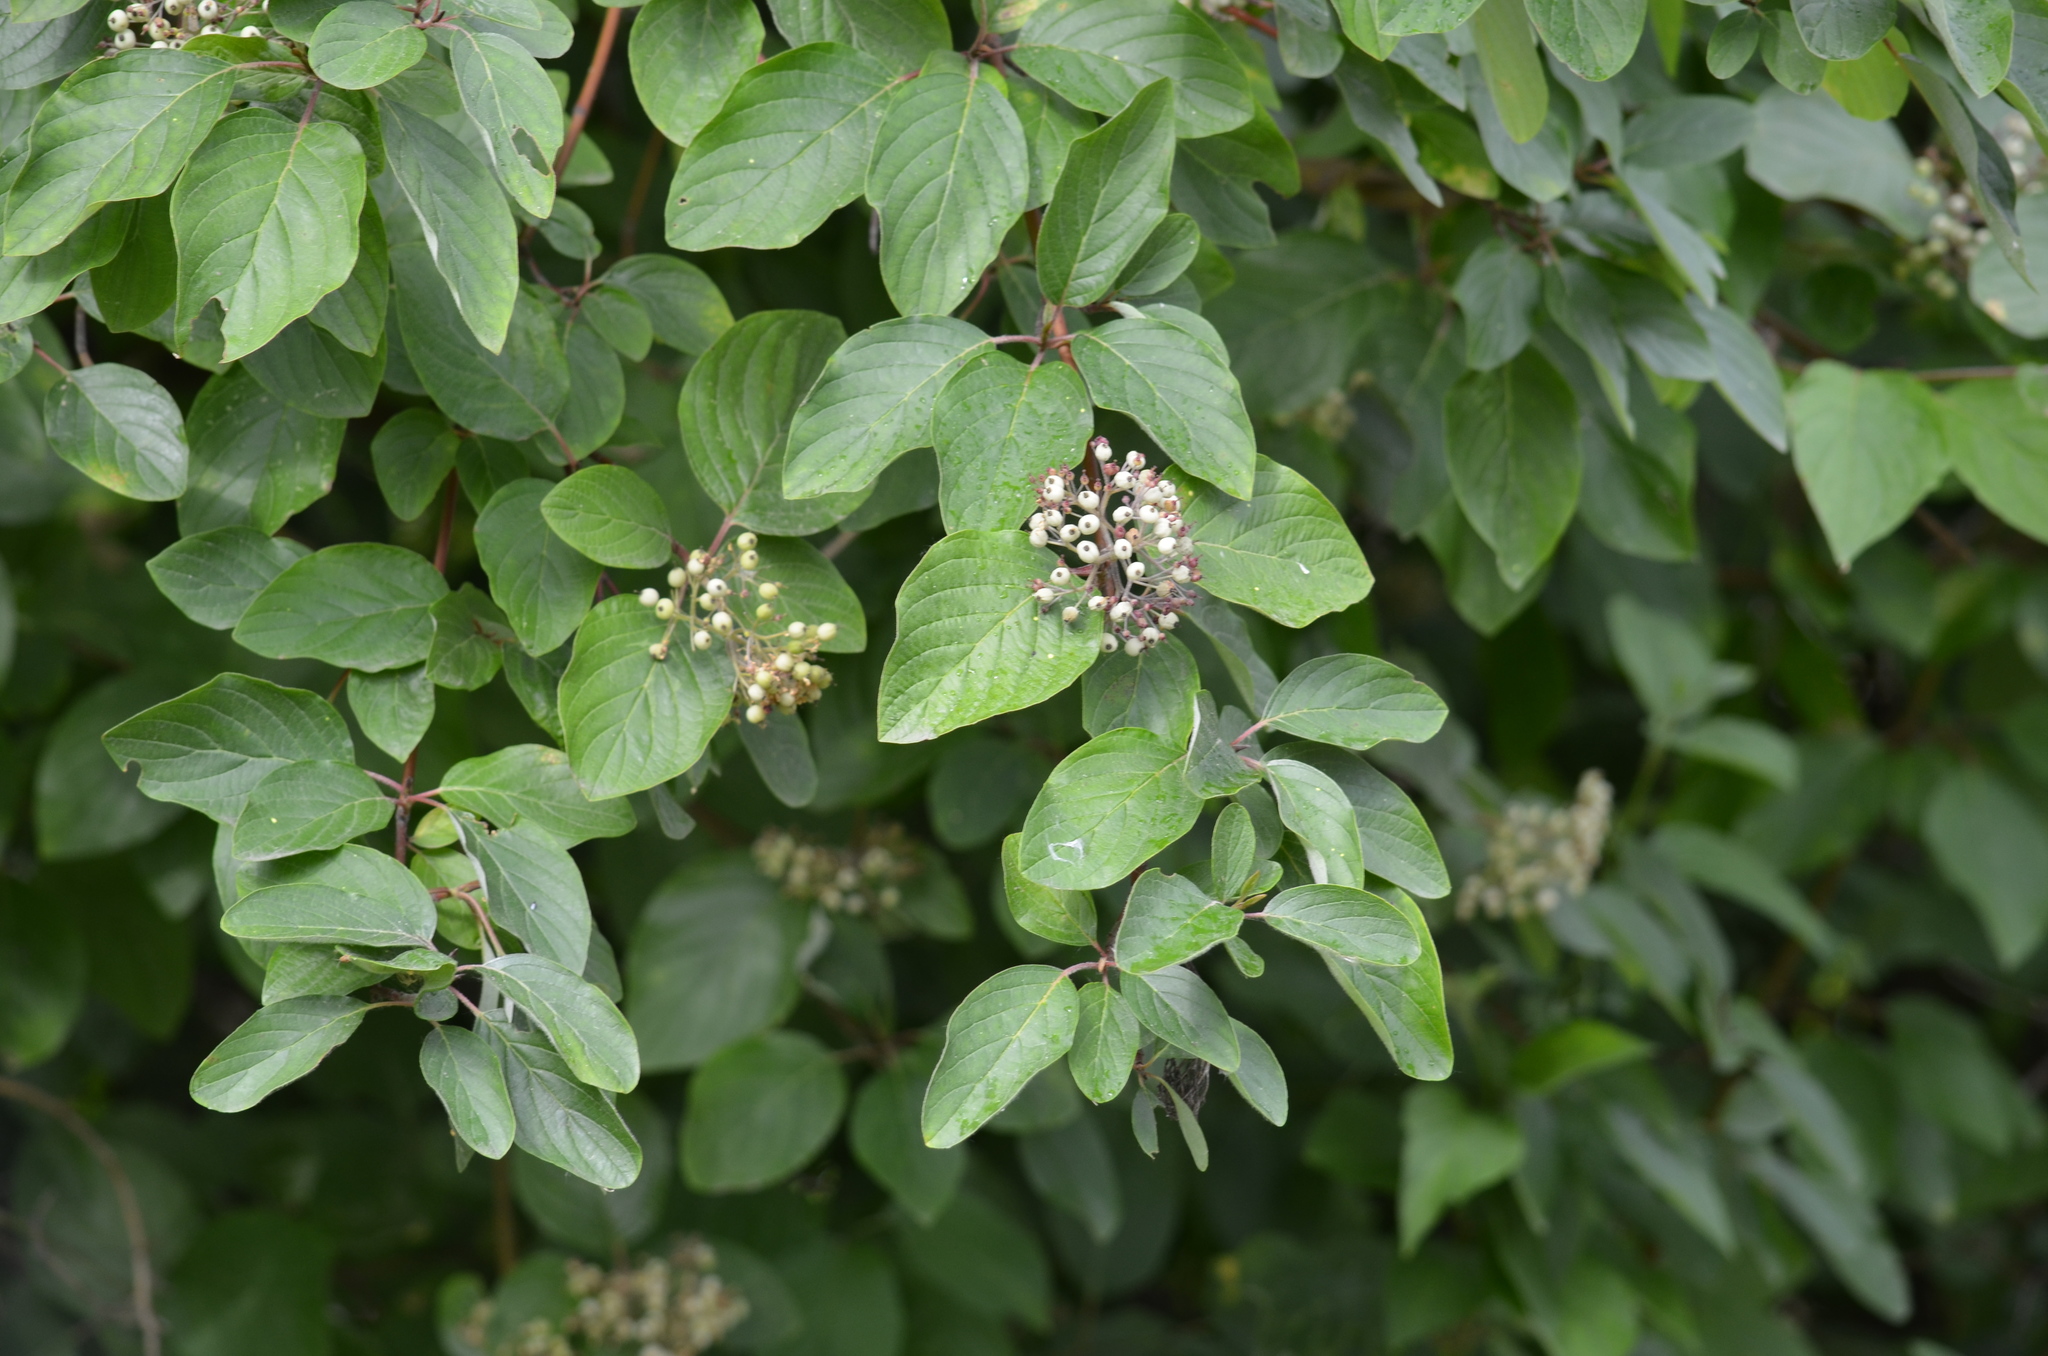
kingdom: Plantae
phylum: Tracheophyta
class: Magnoliopsida
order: Cornales
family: Cornaceae
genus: Cornus
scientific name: Cornus sericea
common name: Red-osier dogwood
